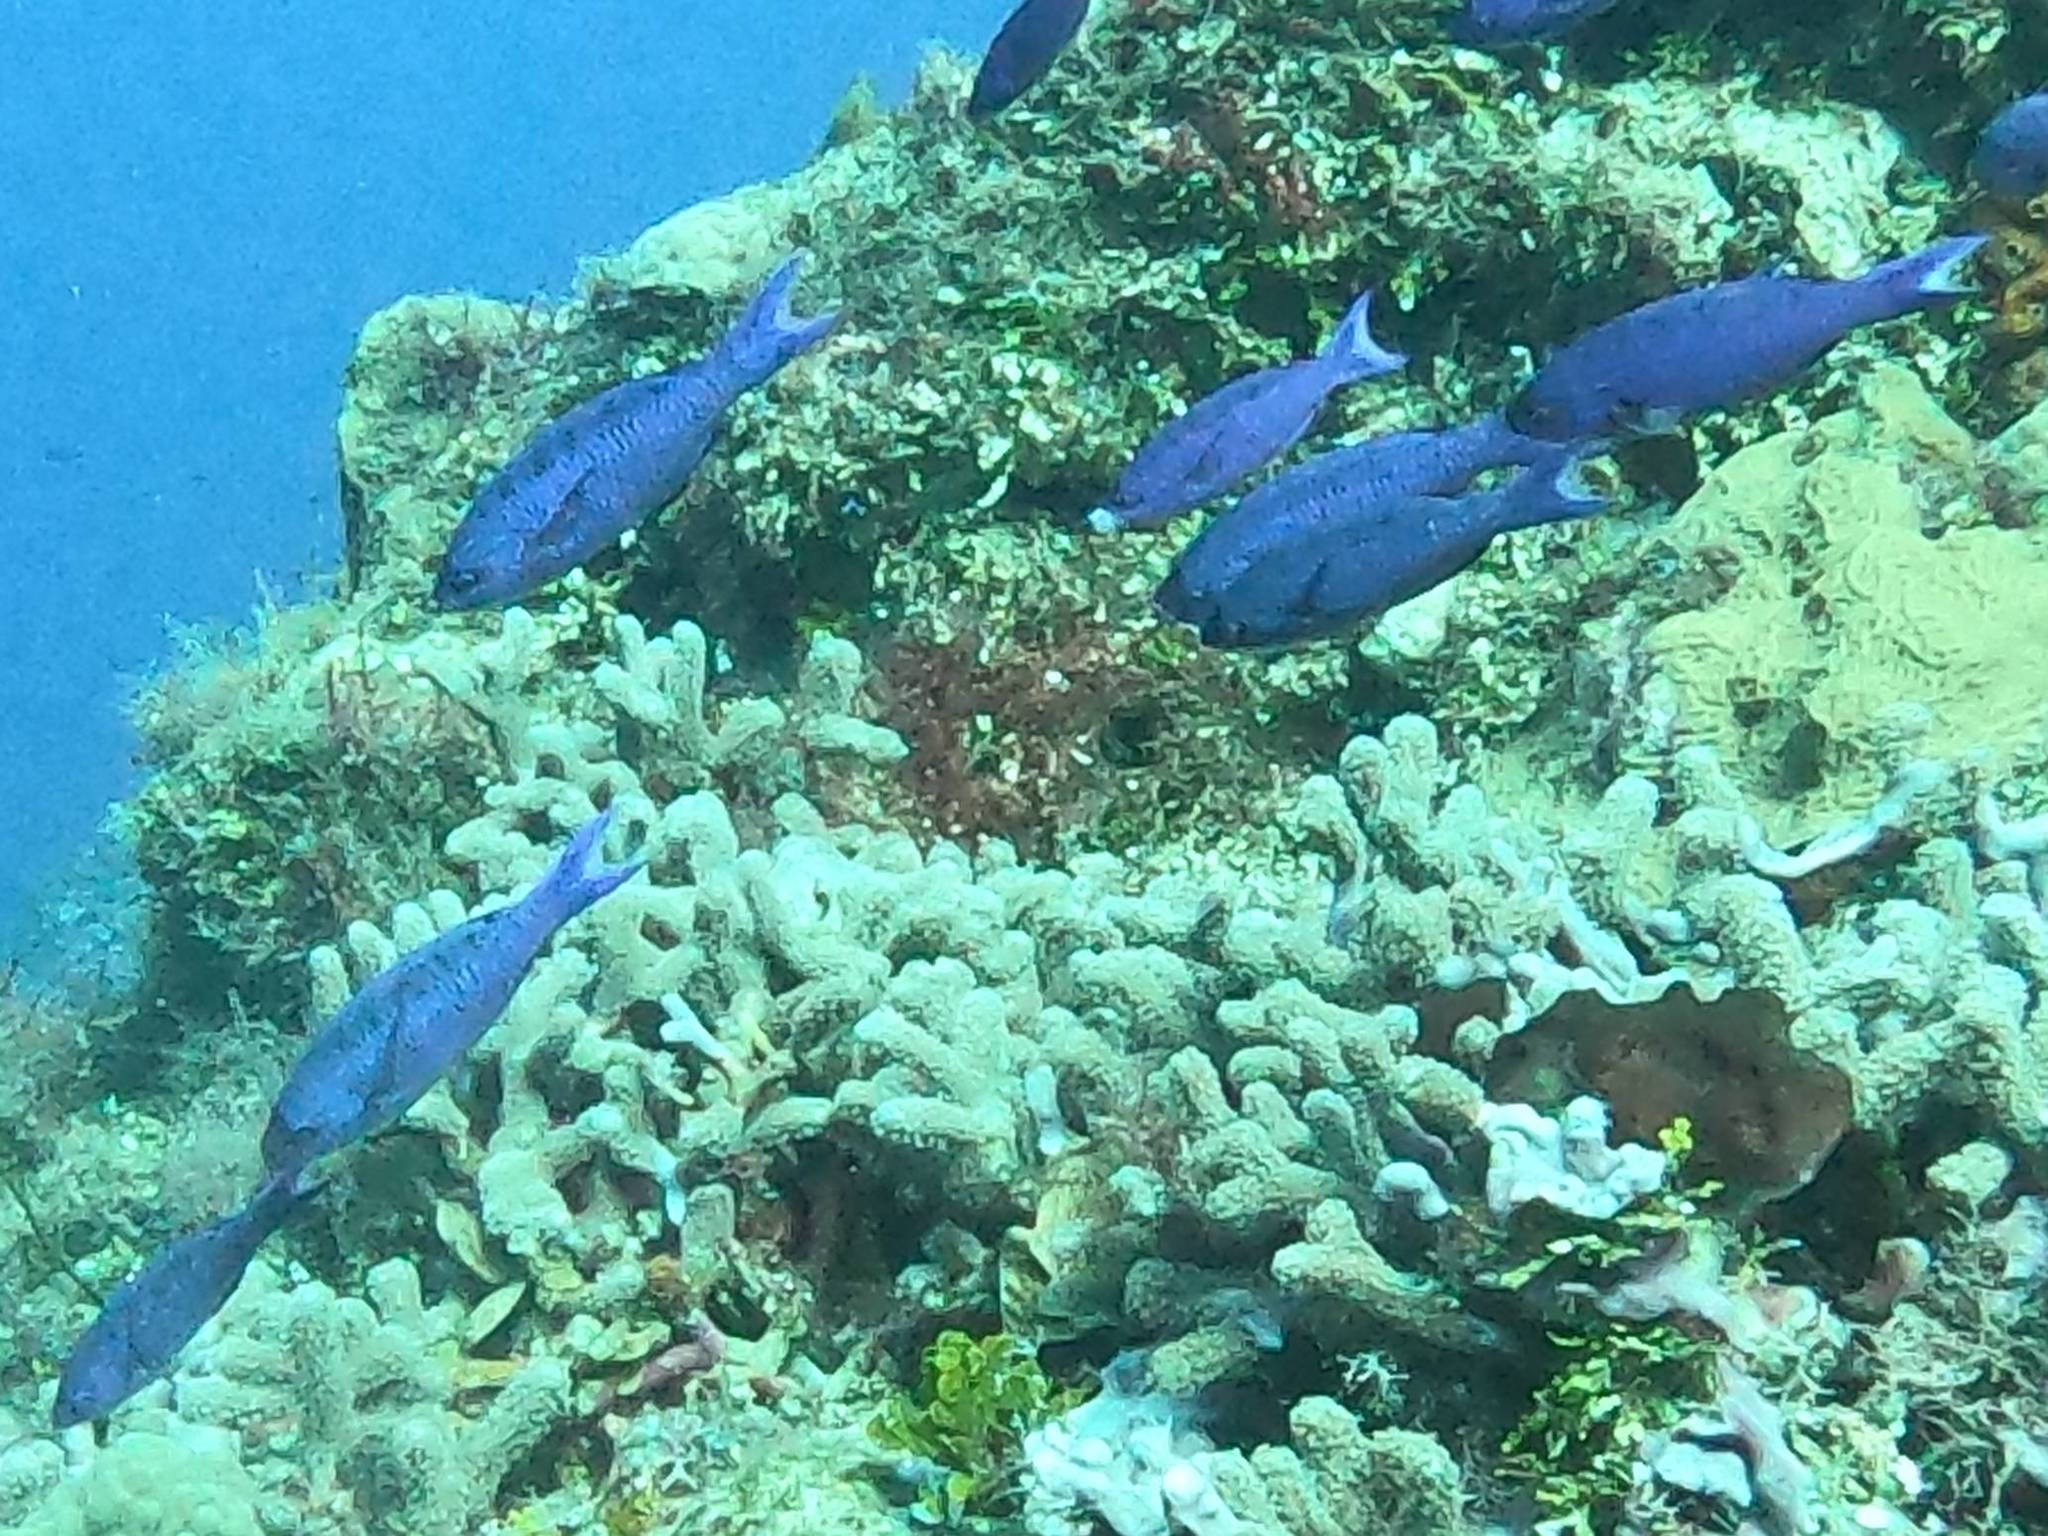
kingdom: Animalia
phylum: Chordata
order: Perciformes
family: Labridae
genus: Bodianus
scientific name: Bodianus
